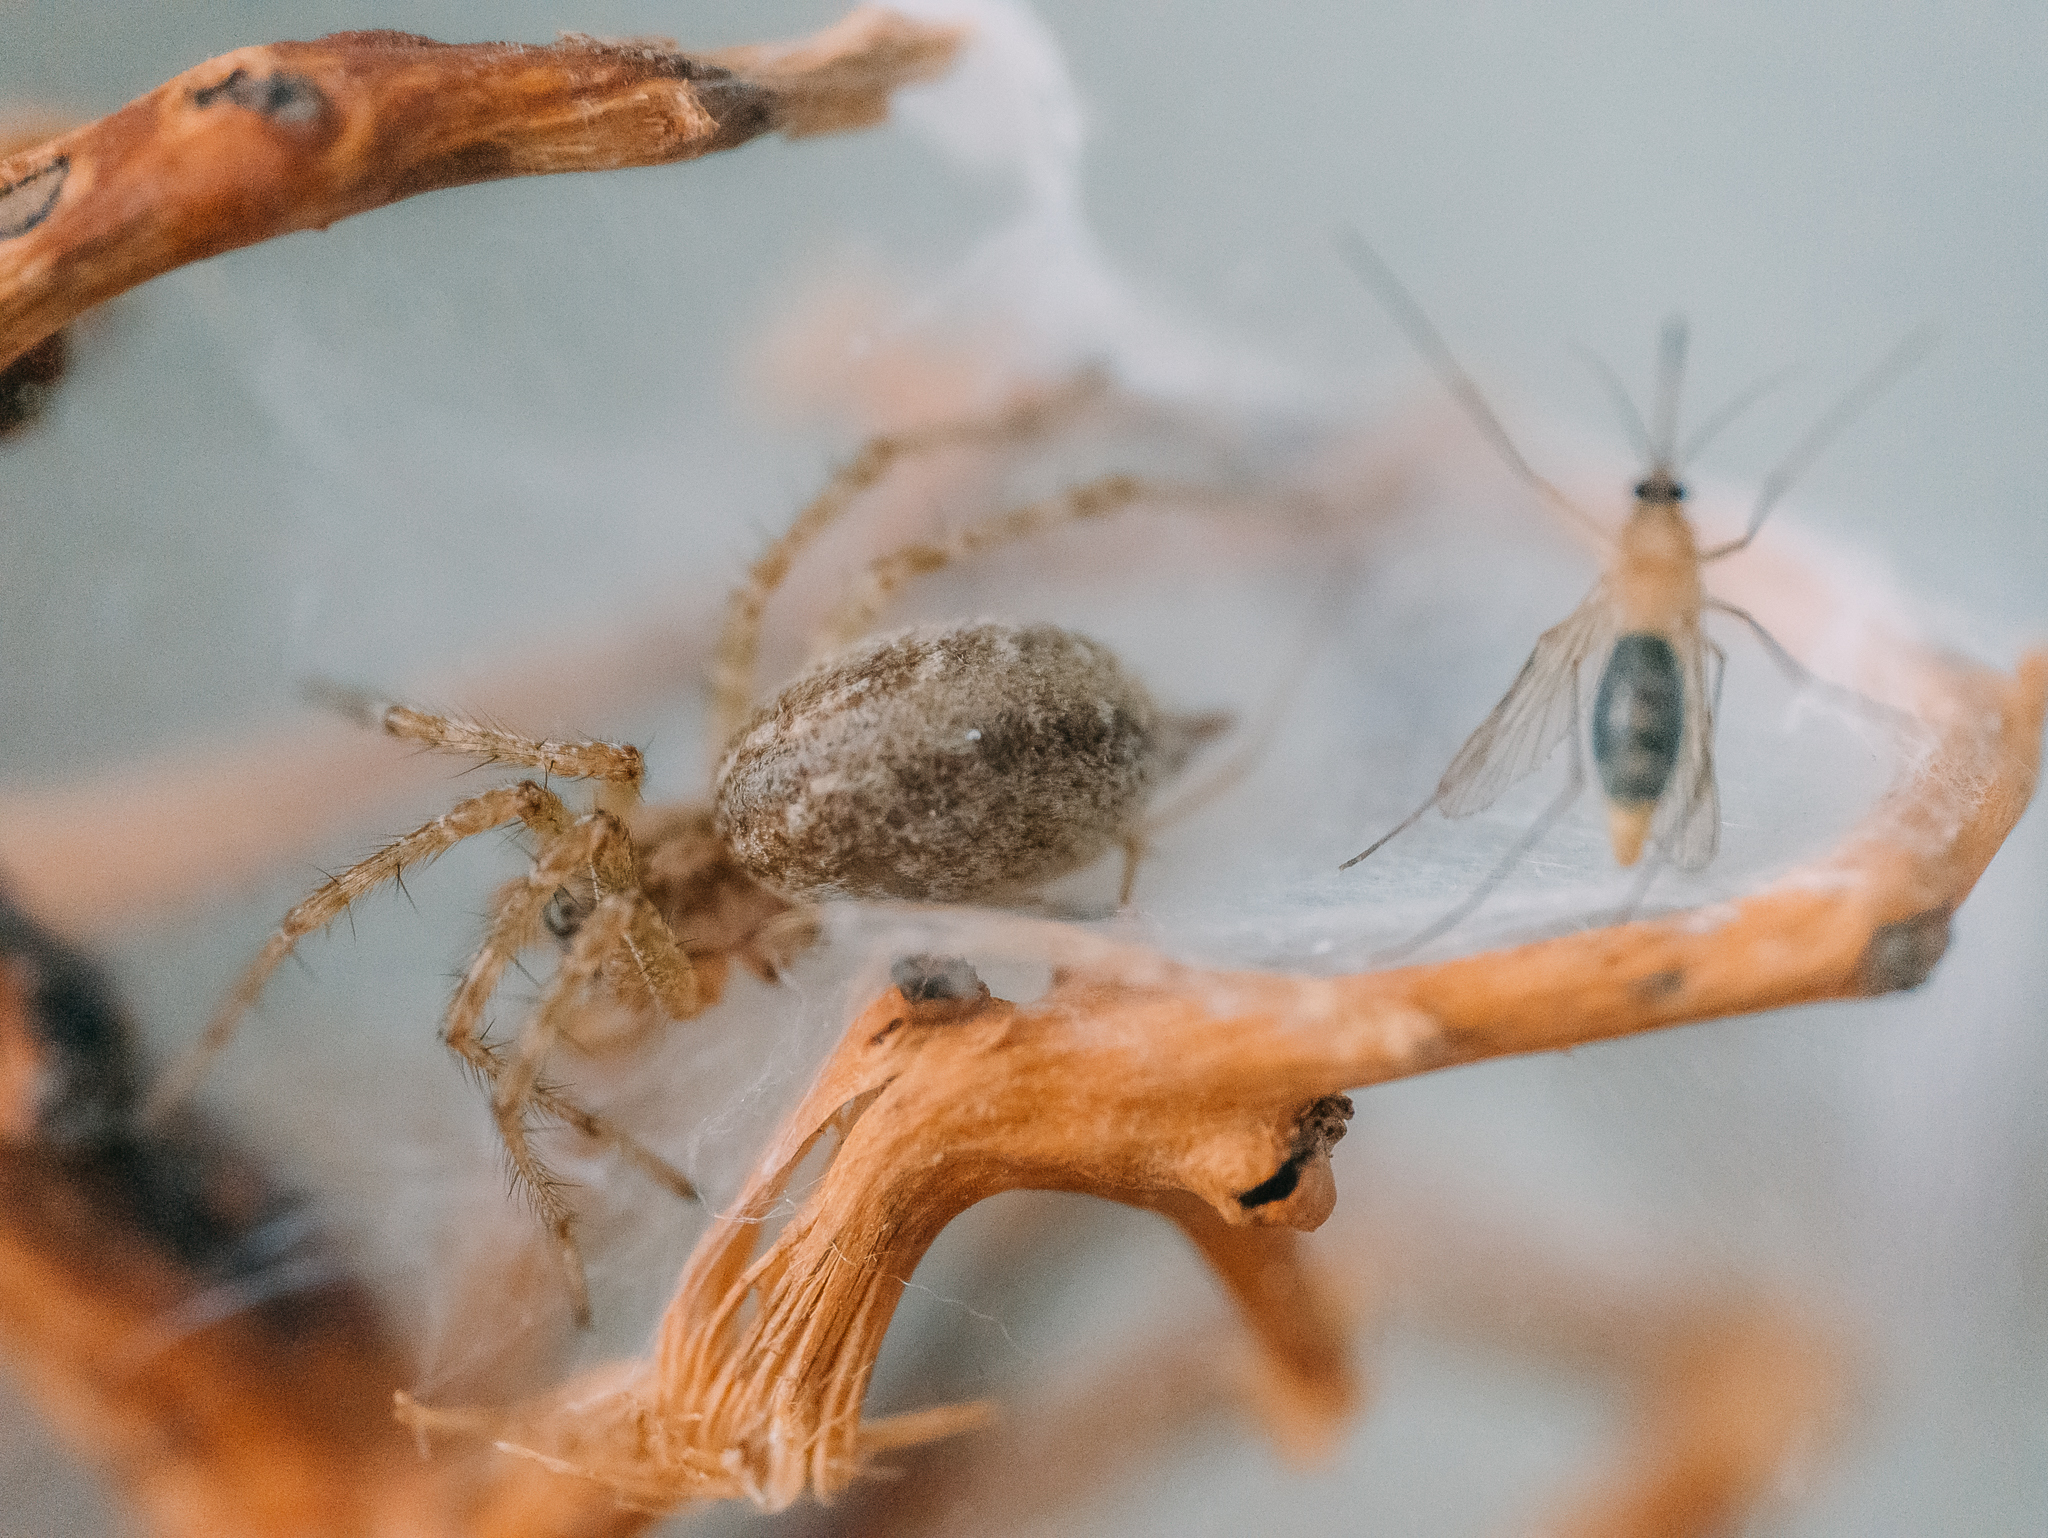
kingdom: Animalia
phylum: Arthropoda
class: Arachnida
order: Araneae
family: Agelenidae
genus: Allagelena
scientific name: Allagelena gracilens
